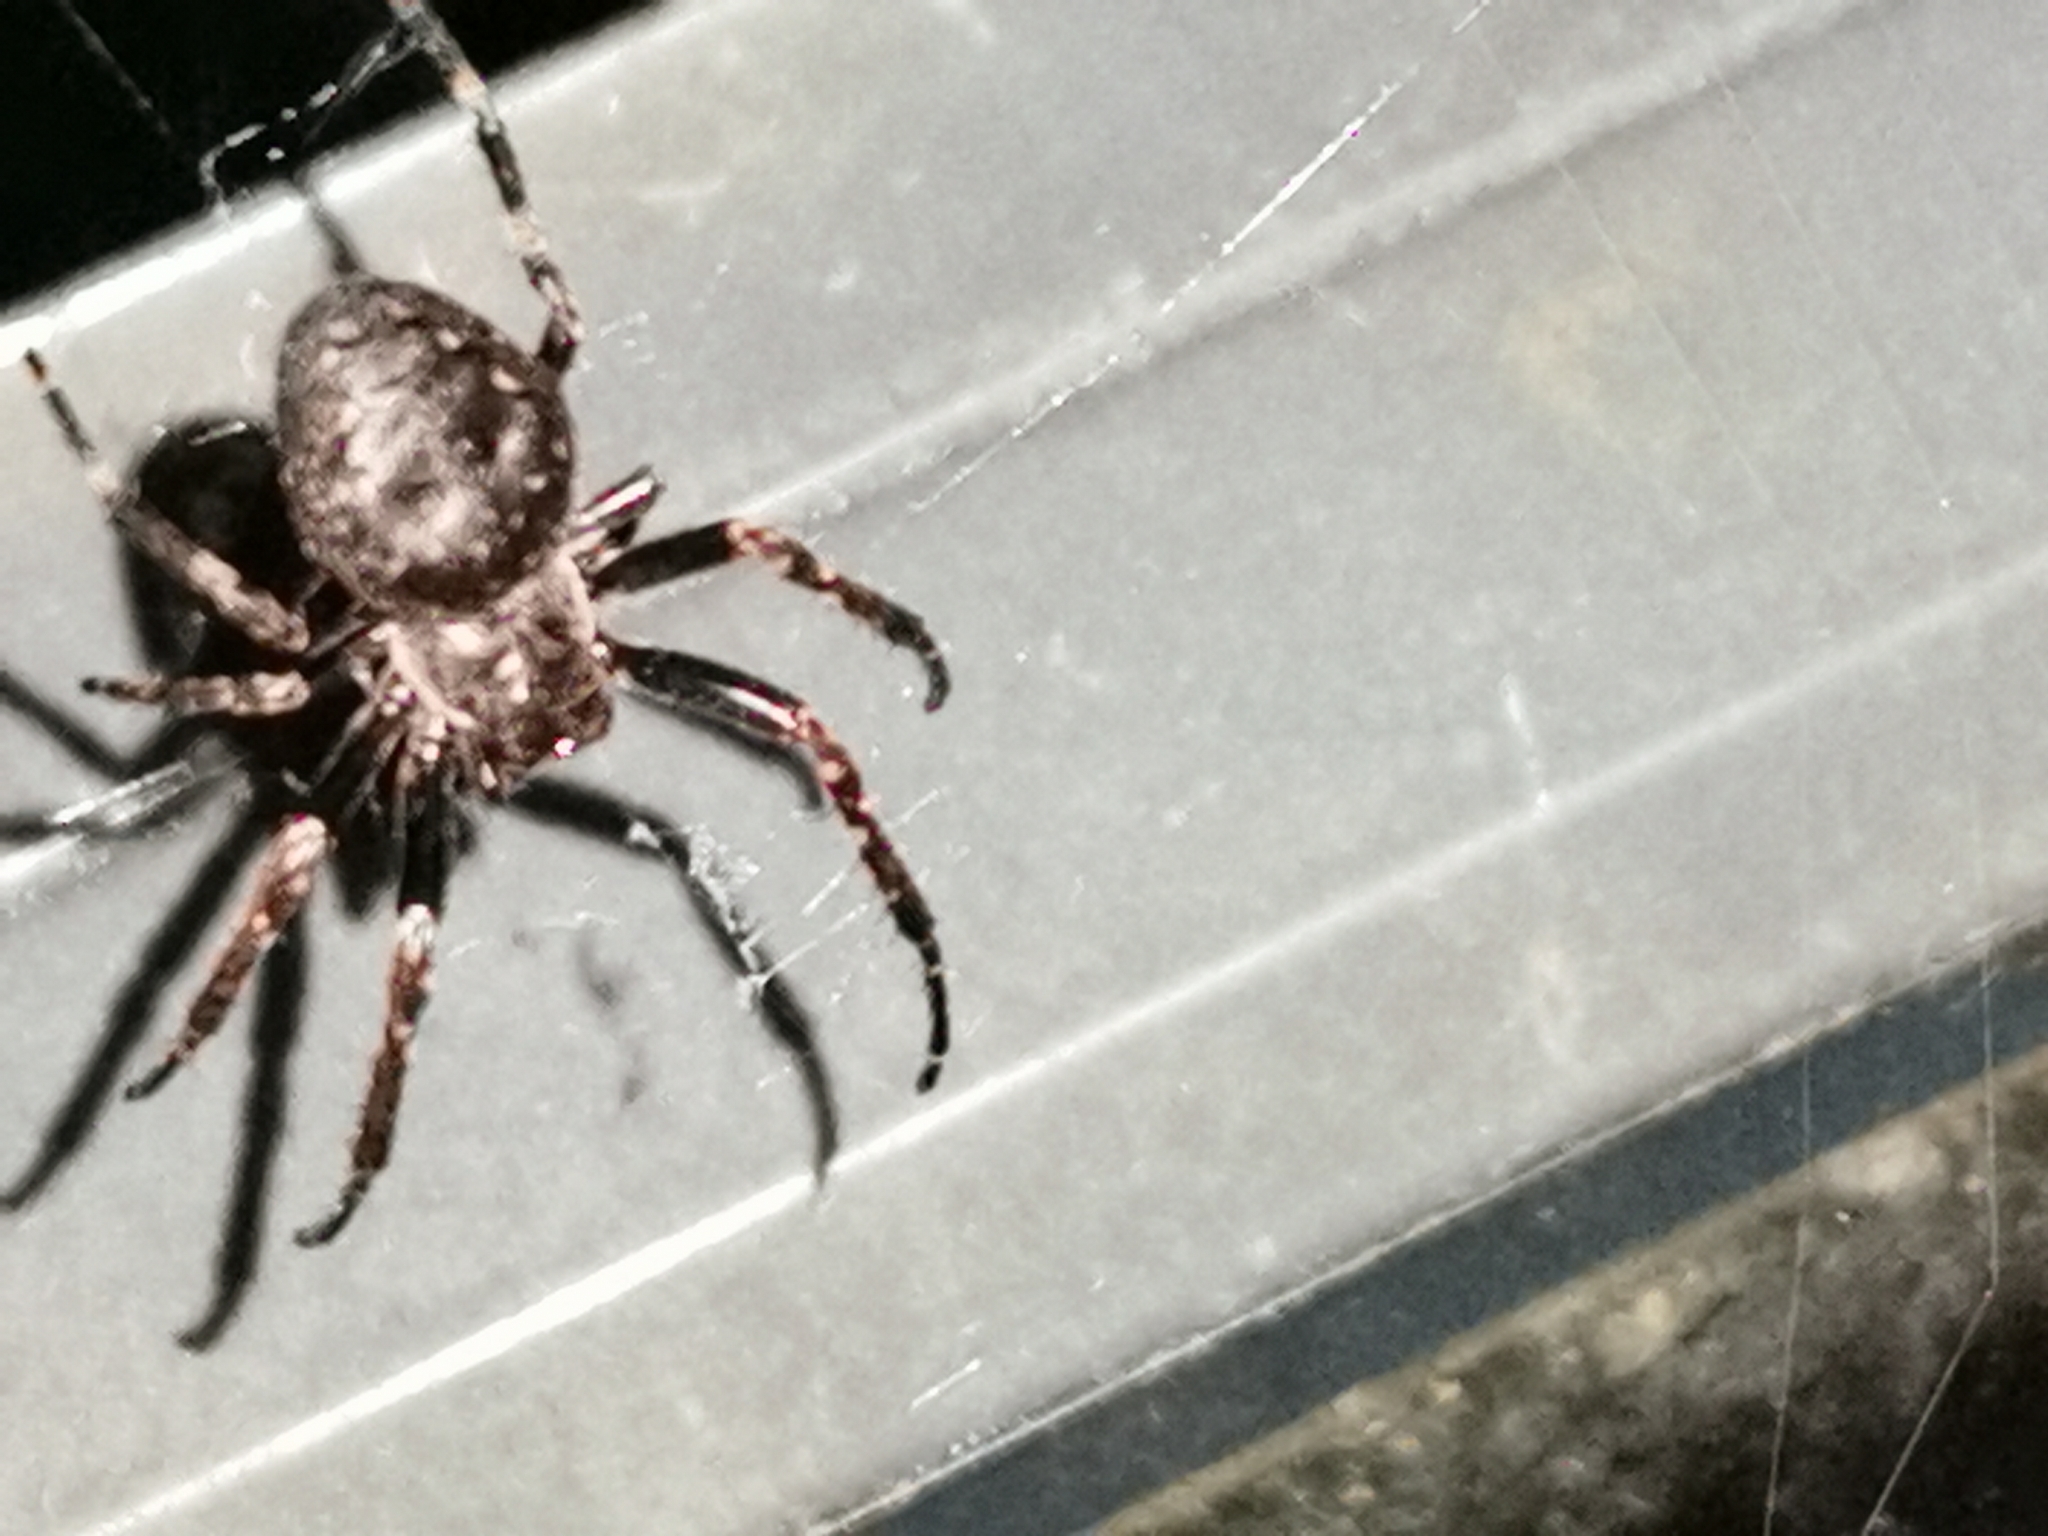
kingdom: Animalia
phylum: Arthropoda
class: Arachnida
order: Araneae
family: Araneidae
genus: Nuctenea
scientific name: Nuctenea umbratica
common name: Toad spider
